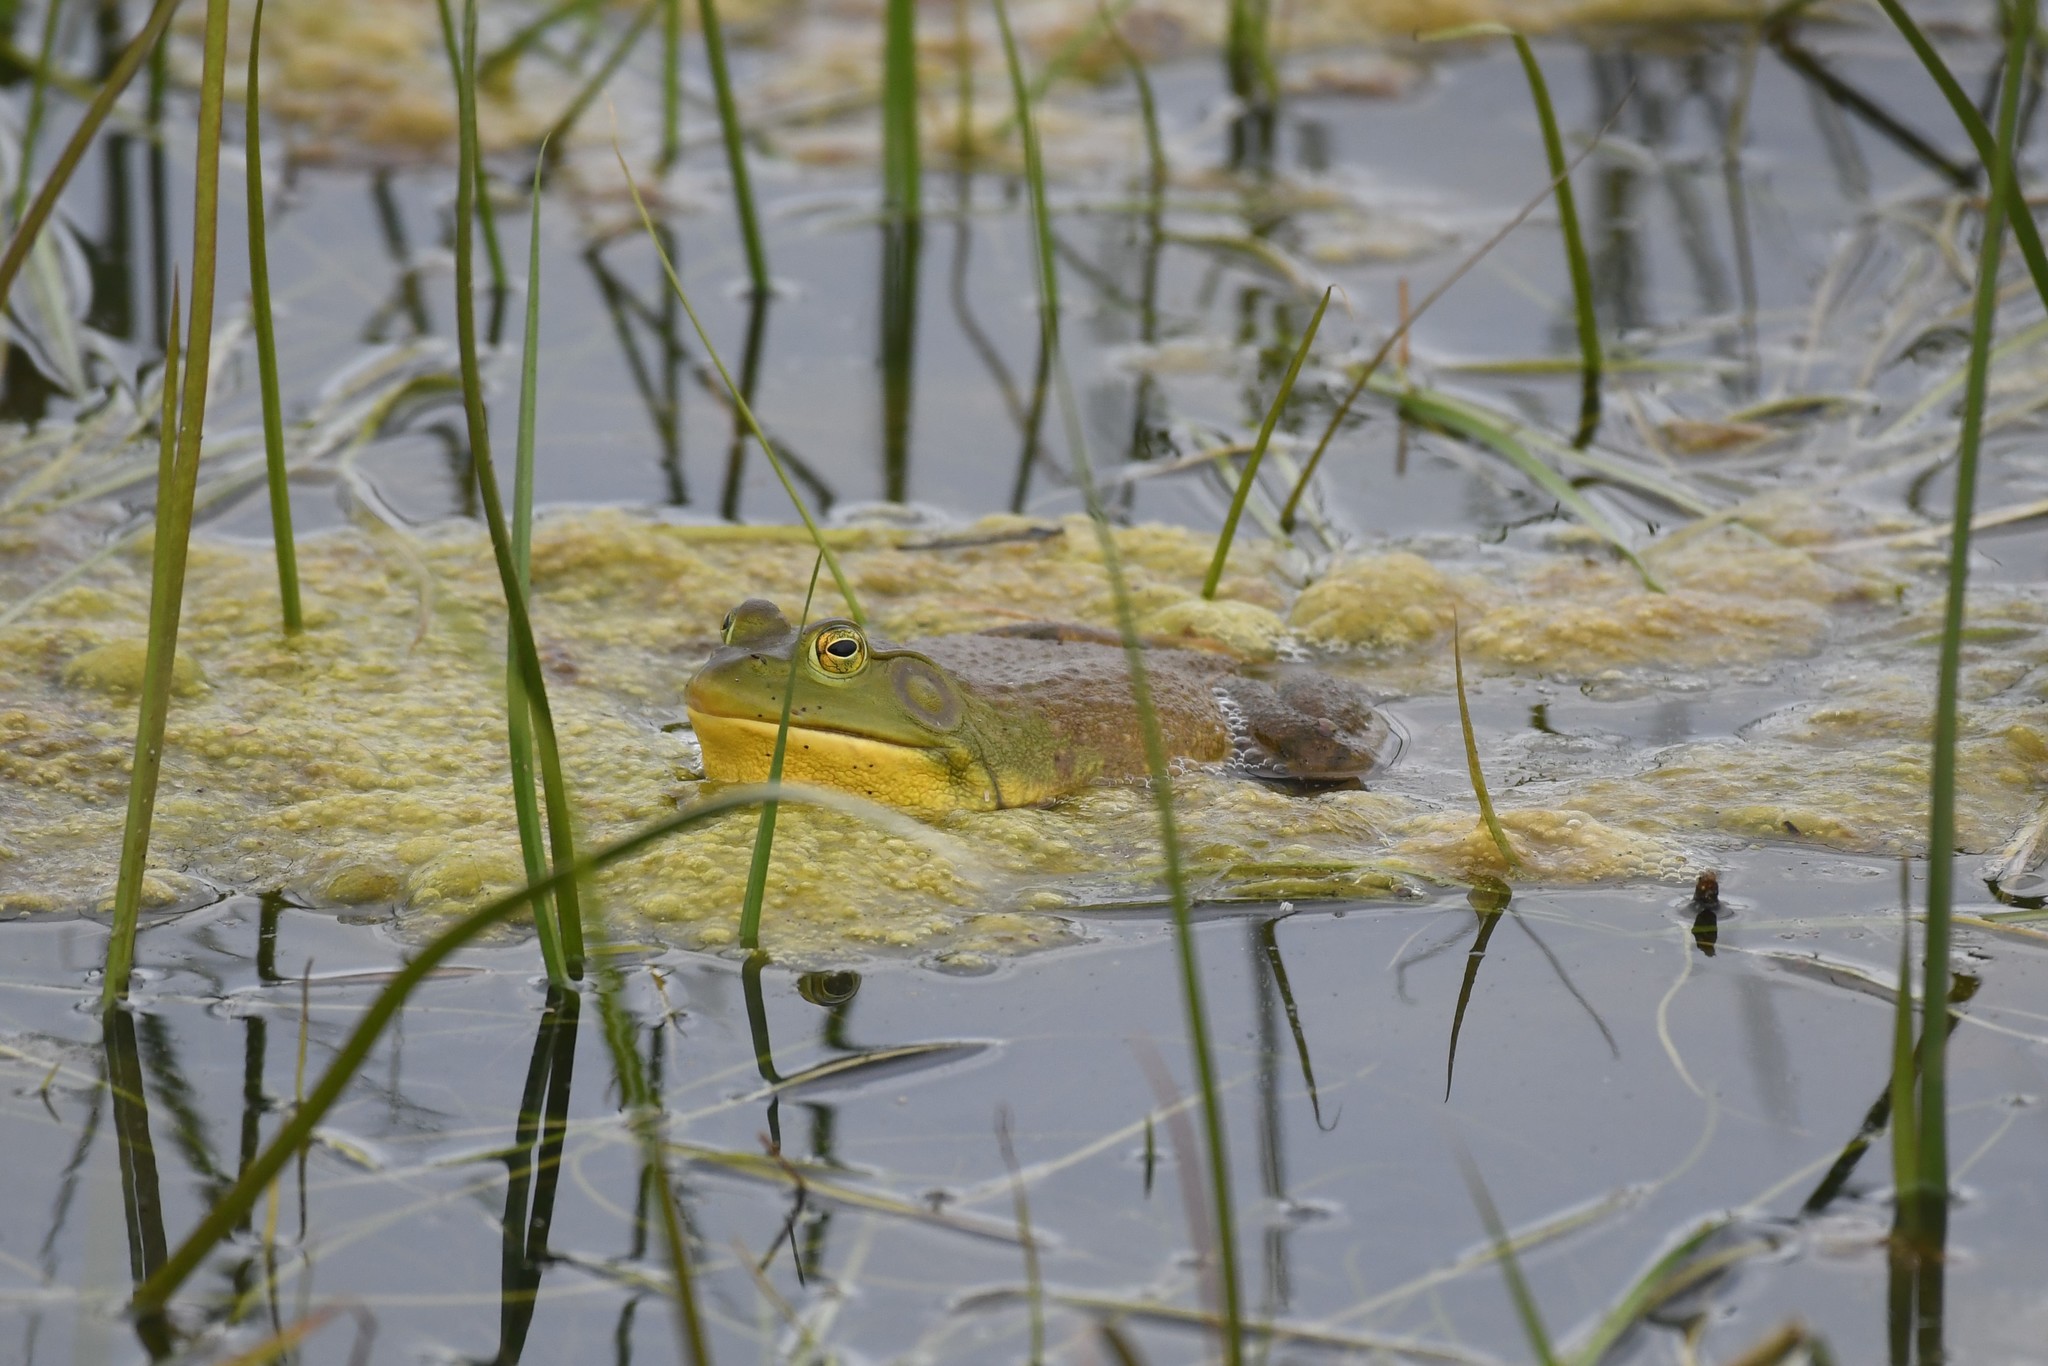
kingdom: Animalia
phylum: Chordata
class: Amphibia
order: Anura
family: Ranidae
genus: Lithobates
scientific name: Lithobates catesbeianus
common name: American bullfrog
